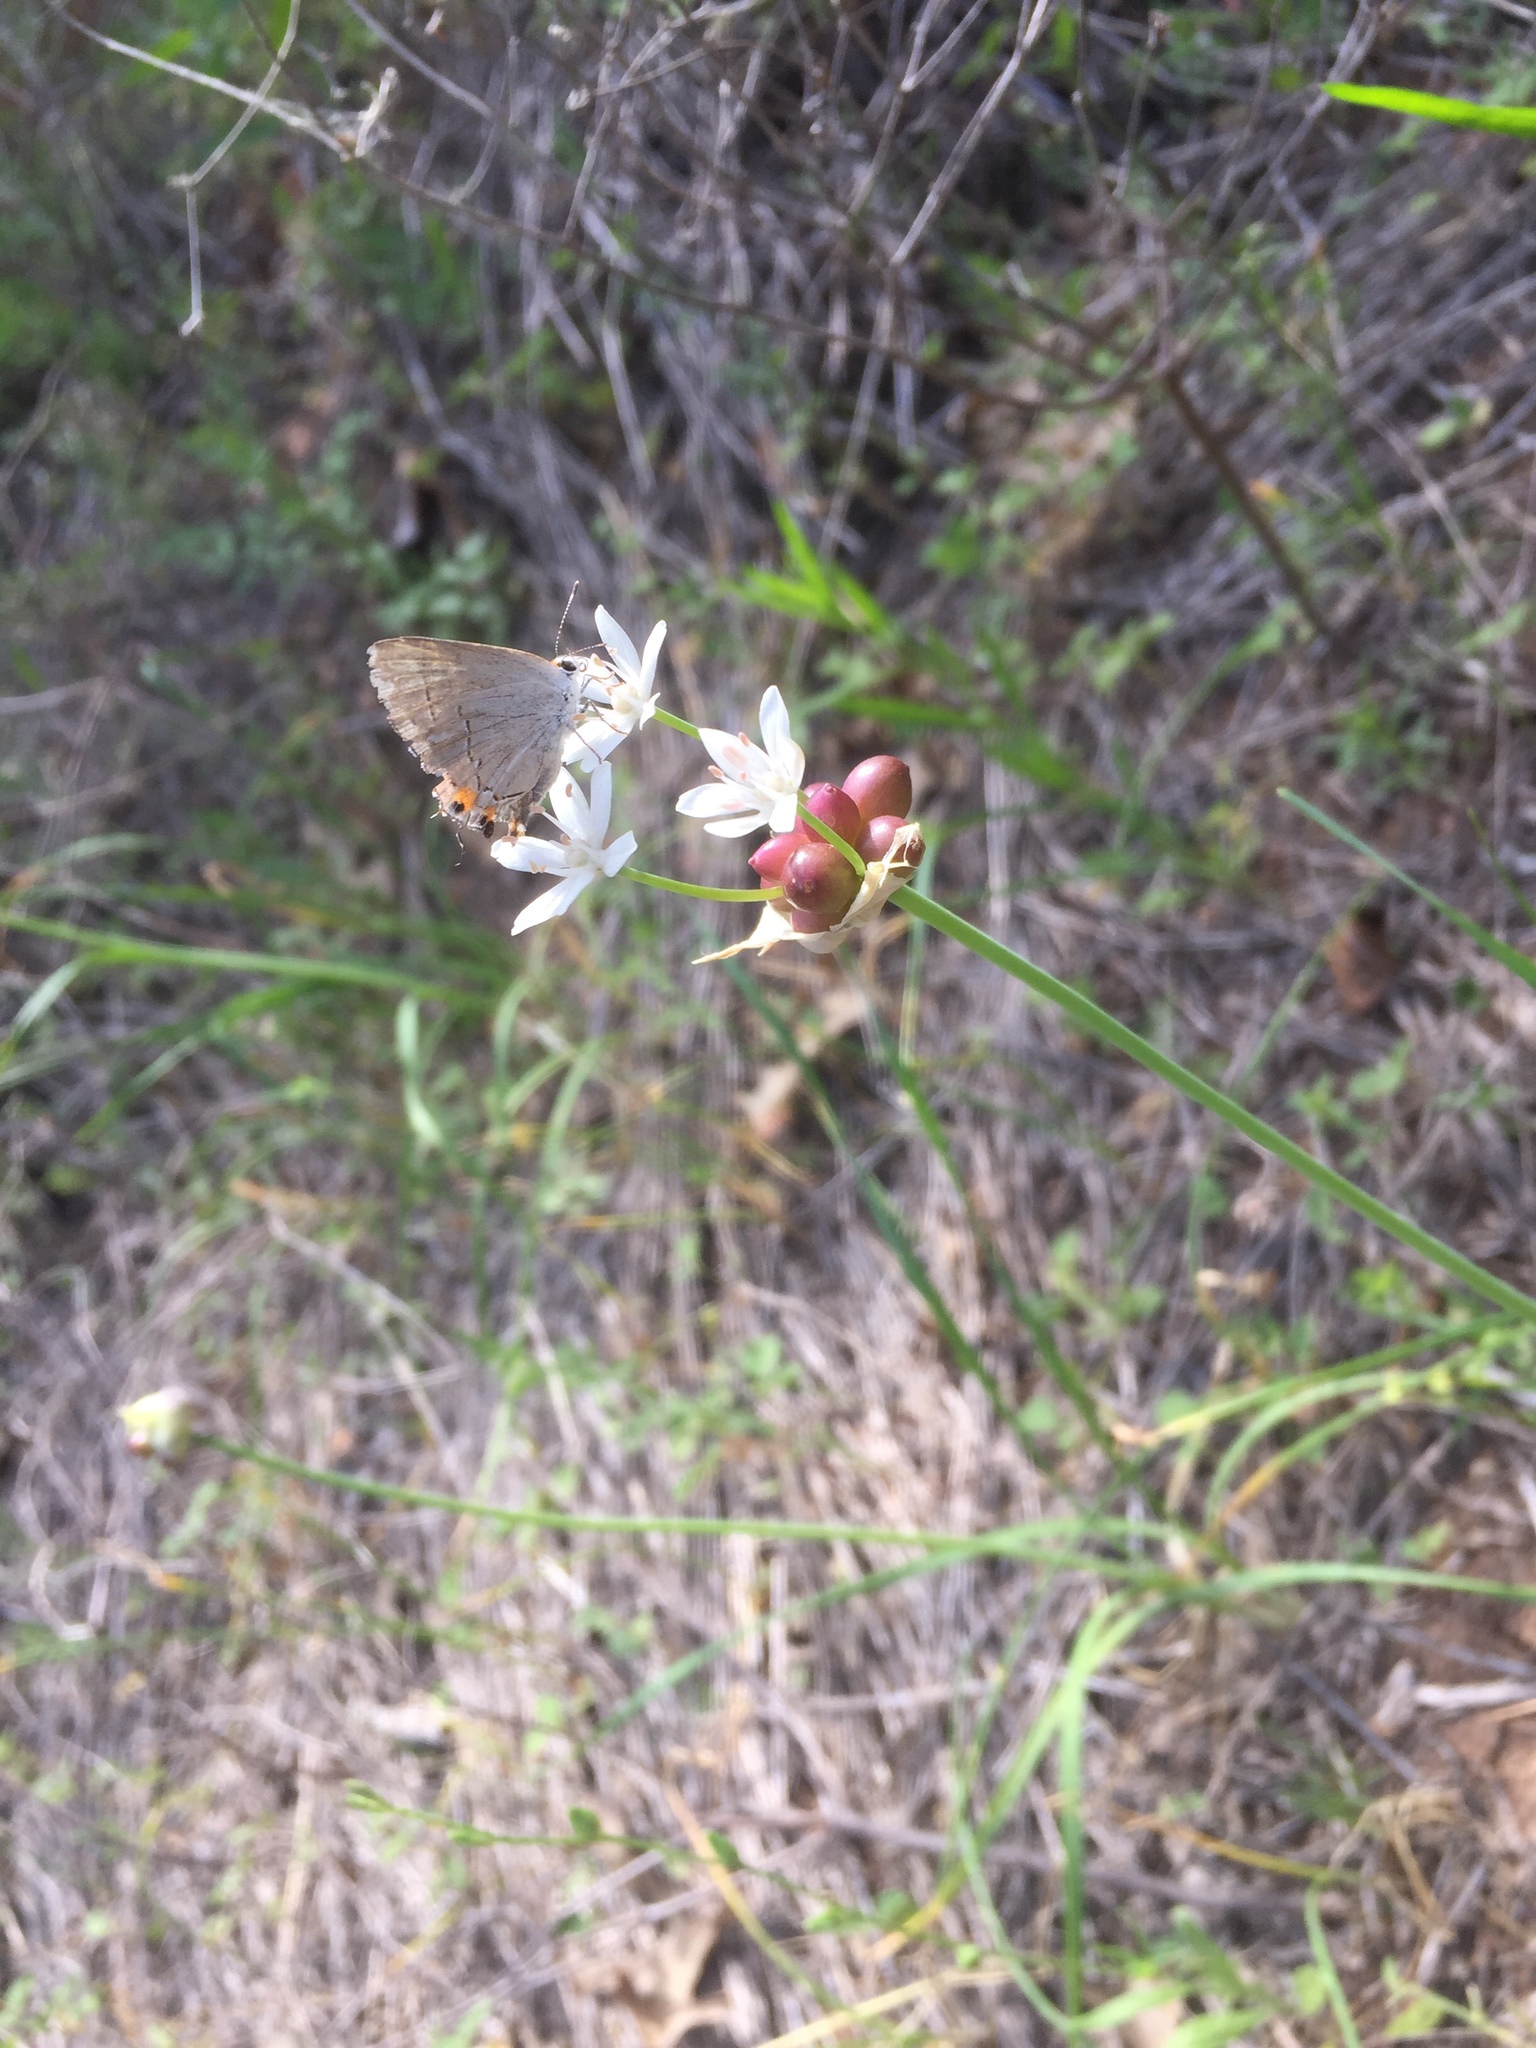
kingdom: Animalia
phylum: Arthropoda
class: Insecta
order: Lepidoptera
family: Lycaenidae
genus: Strymon
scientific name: Strymon melinus
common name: Gray hairstreak
